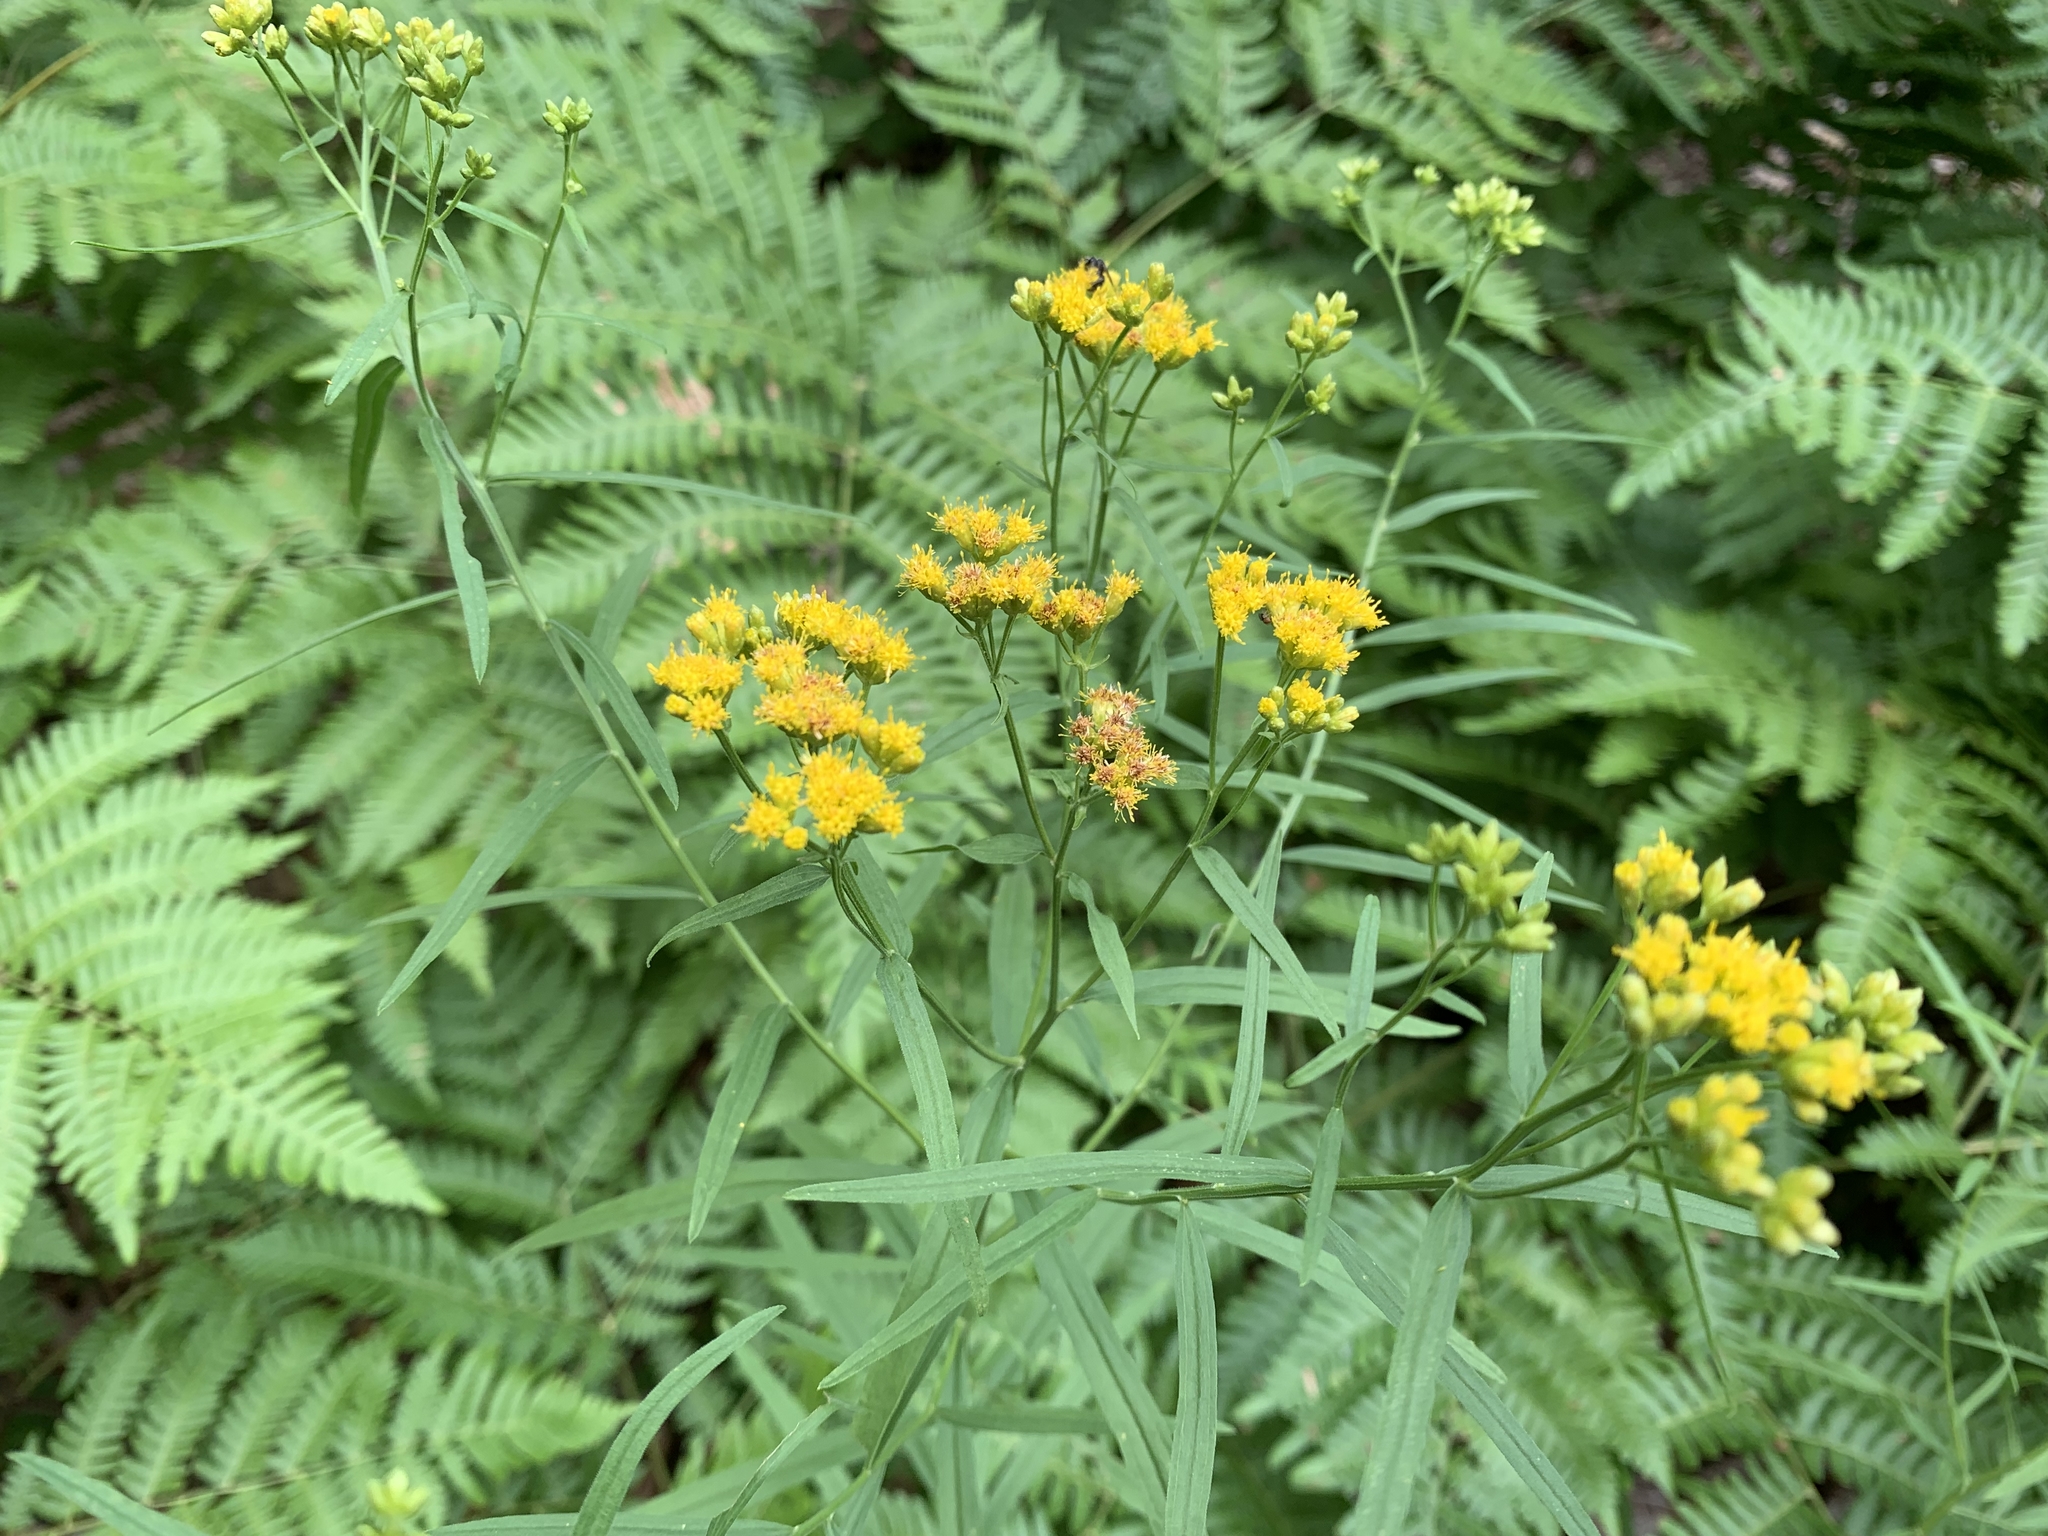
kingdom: Plantae
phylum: Tracheophyta
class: Magnoliopsida
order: Asterales
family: Asteraceae
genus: Euthamia
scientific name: Euthamia graminifolia
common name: Common goldentop
